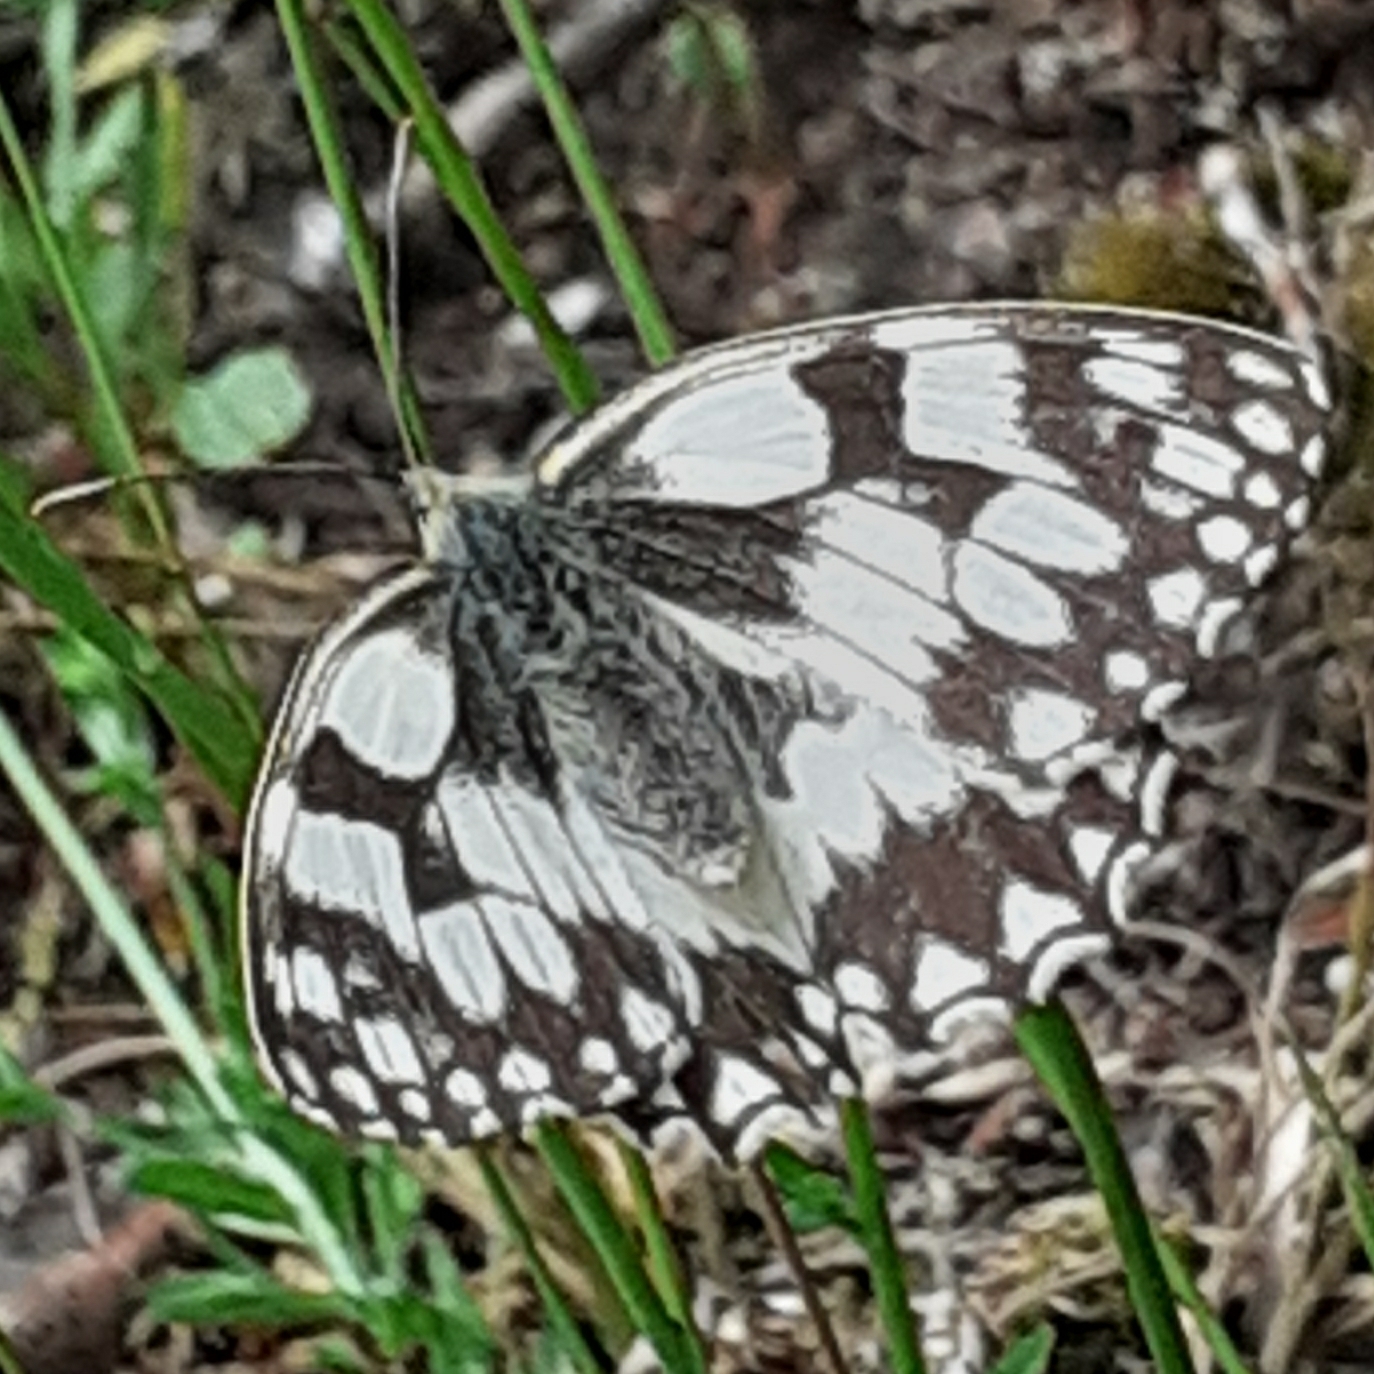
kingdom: Animalia
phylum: Arthropoda
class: Insecta
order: Lepidoptera
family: Nymphalidae
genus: Melanargia
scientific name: Melanargia galathea
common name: Marbled white
